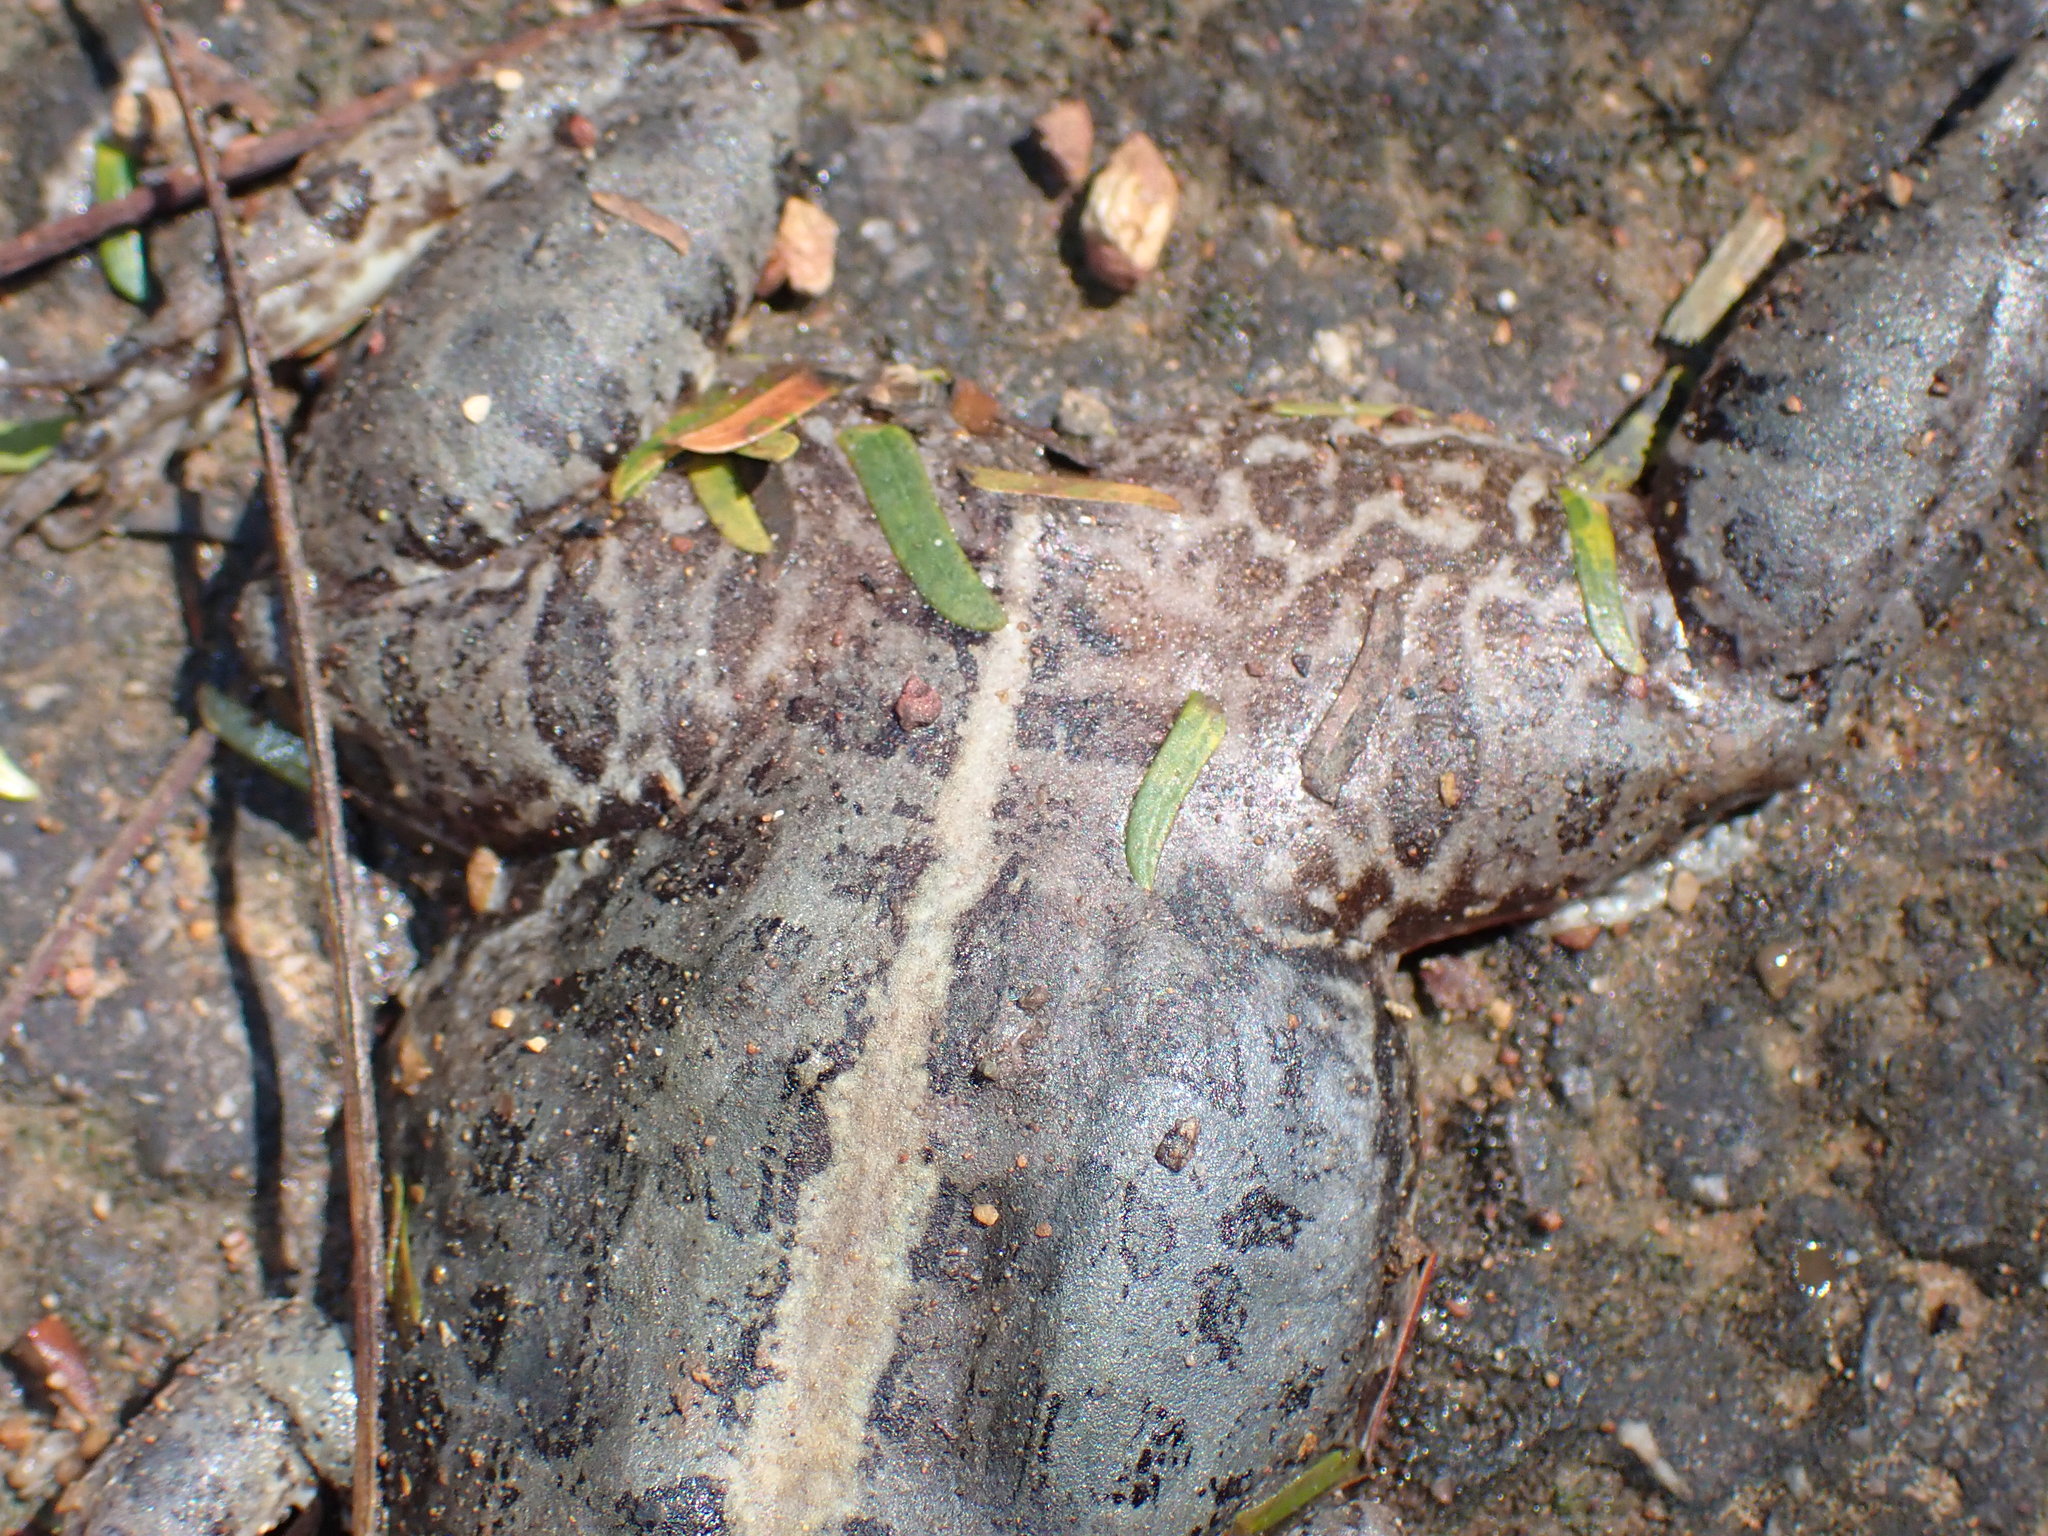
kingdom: Animalia
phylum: Chordata
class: Amphibia
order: Anura
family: Dicroglossidae
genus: Fejervarya
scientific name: Fejervarya limnocharis
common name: Asian grass frog/common pond frog/field frog/grass frog/indian rice frog
